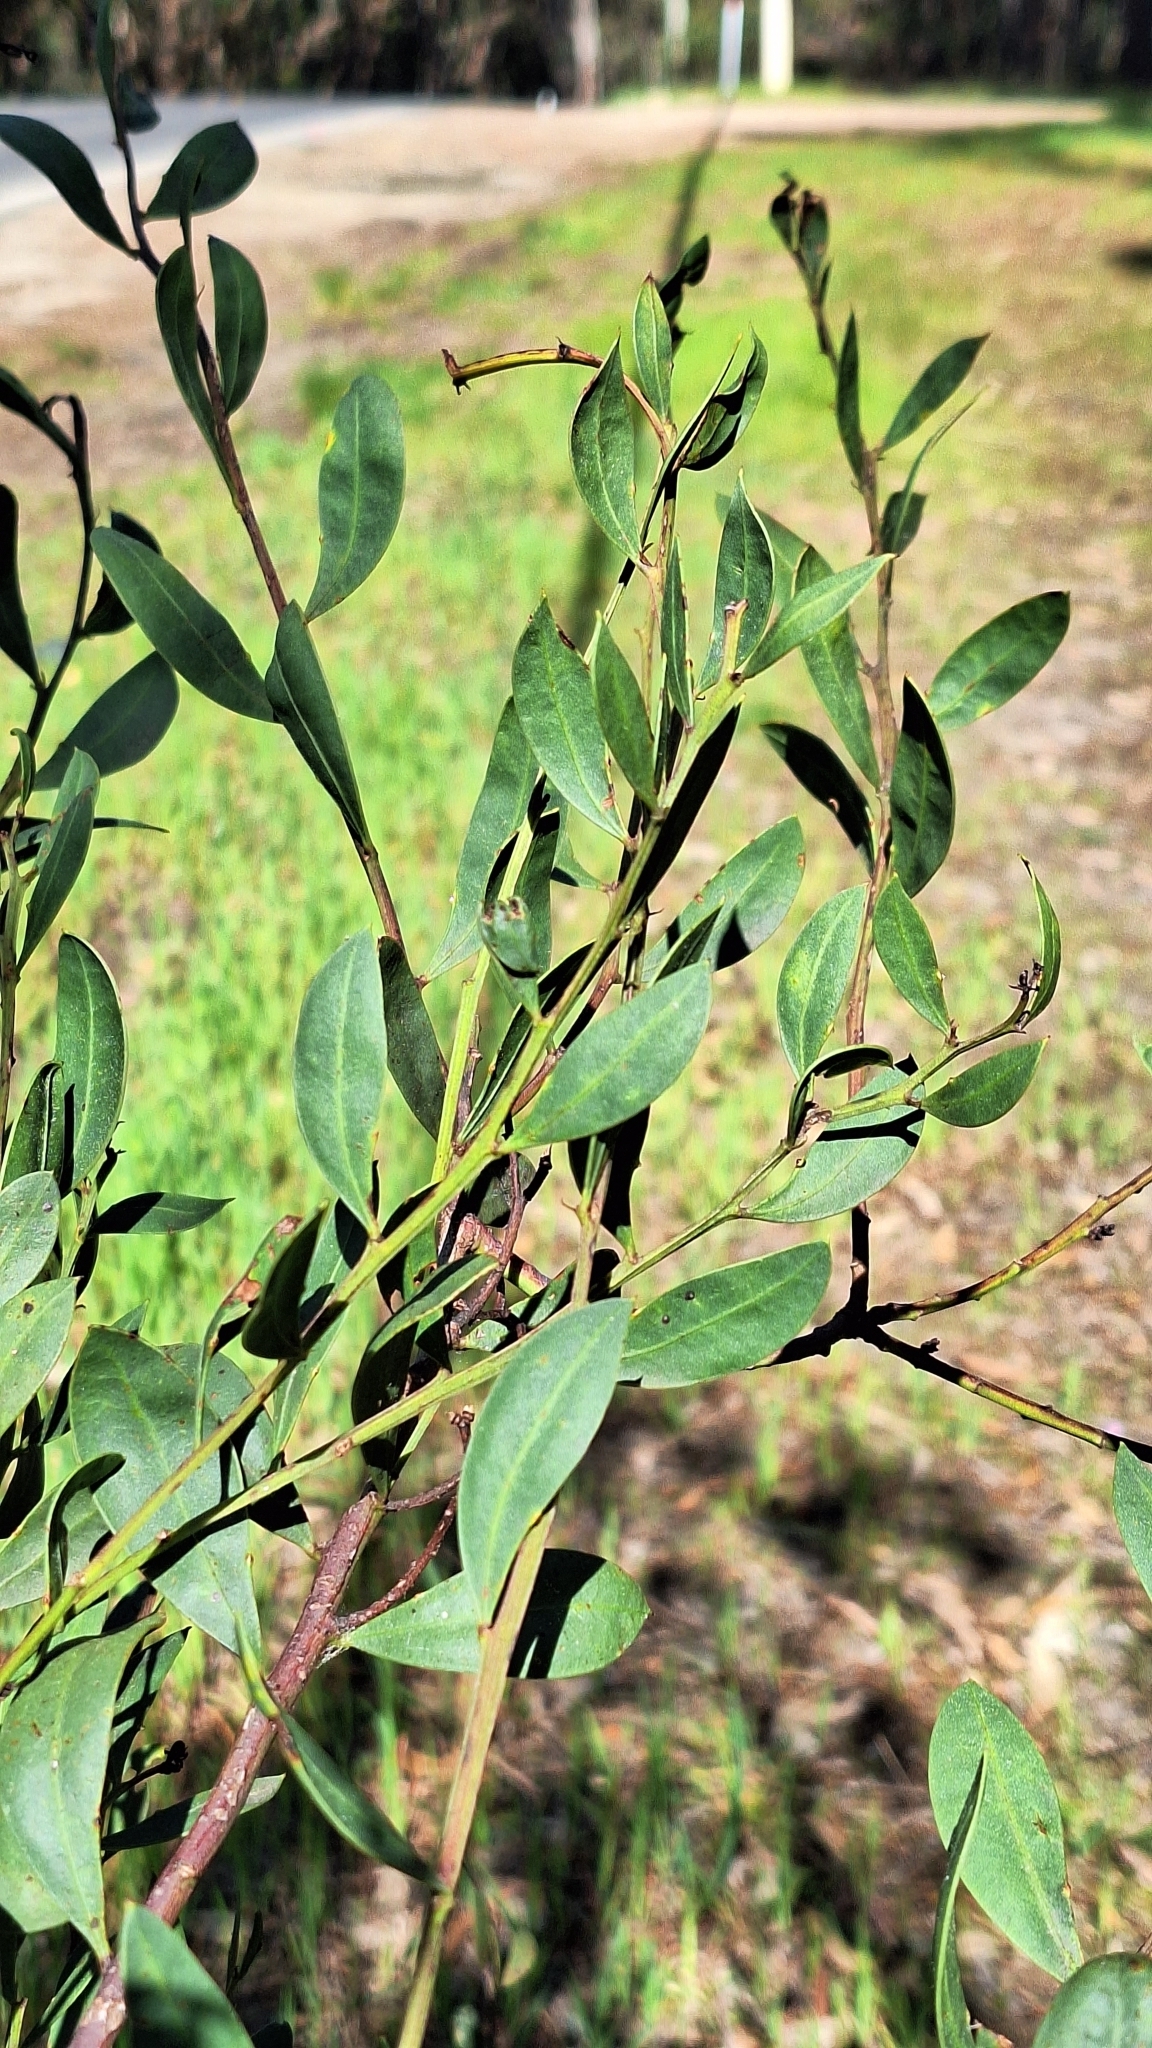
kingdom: Plantae
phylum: Tracheophyta
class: Magnoliopsida
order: Fabales
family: Fabaceae
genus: Acacia
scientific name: Acacia myrtifolia
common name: Myrtle wattle
